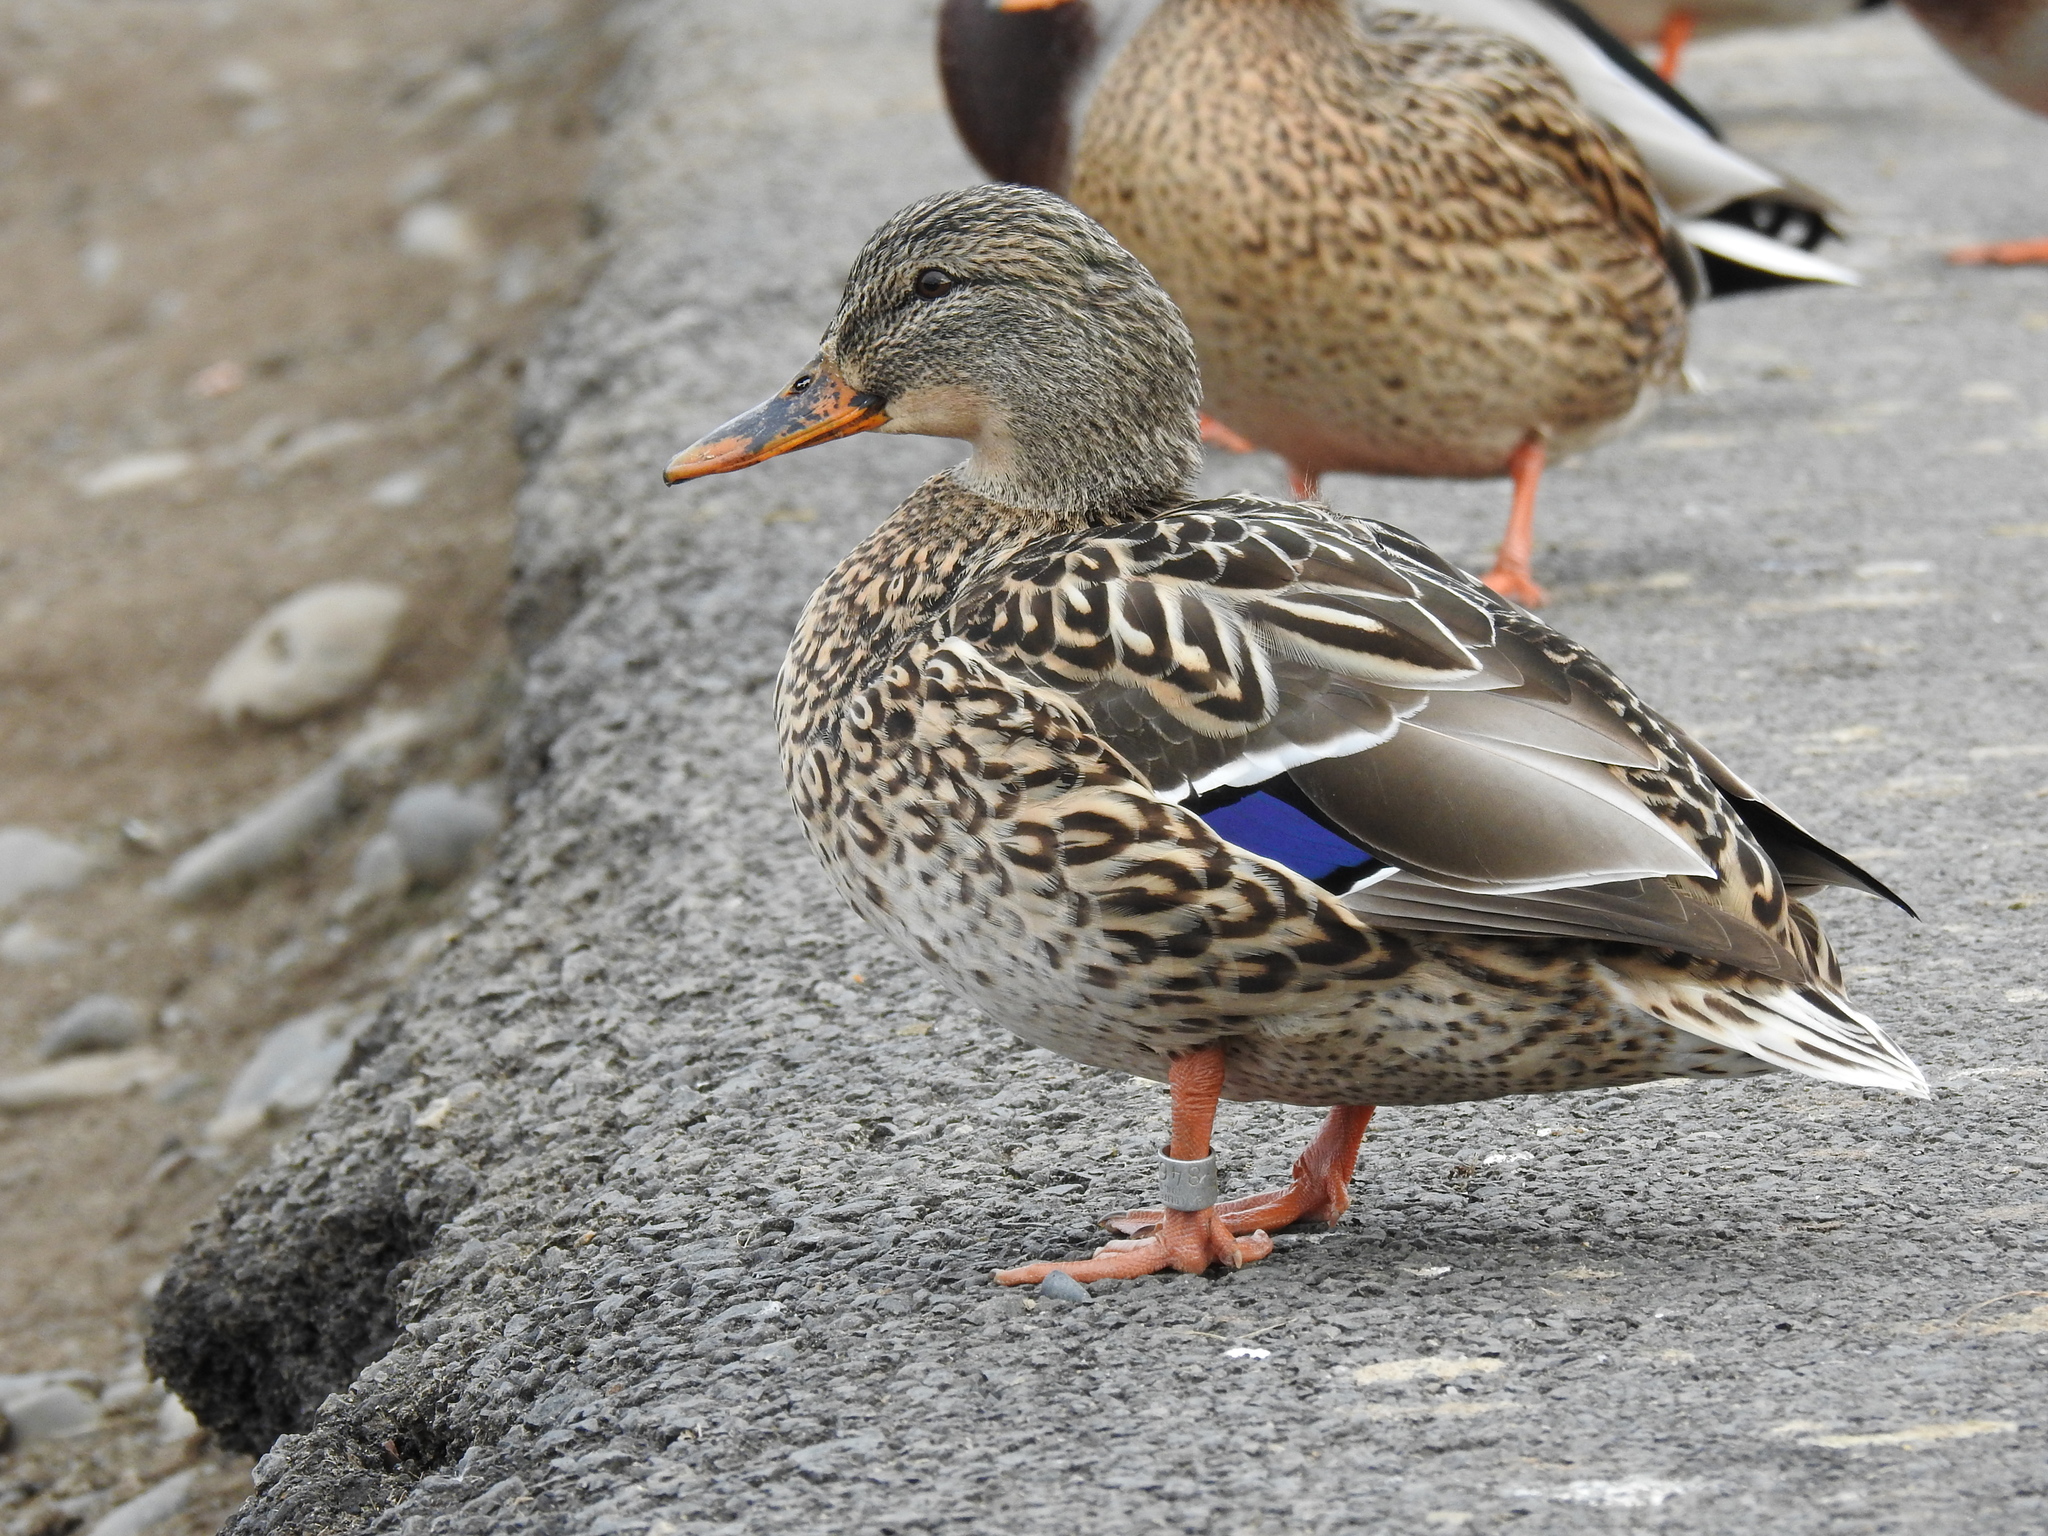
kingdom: Animalia
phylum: Chordata
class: Aves
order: Anseriformes
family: Anatidae
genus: Anas
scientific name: Anas platyrhynchos
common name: Mallard
